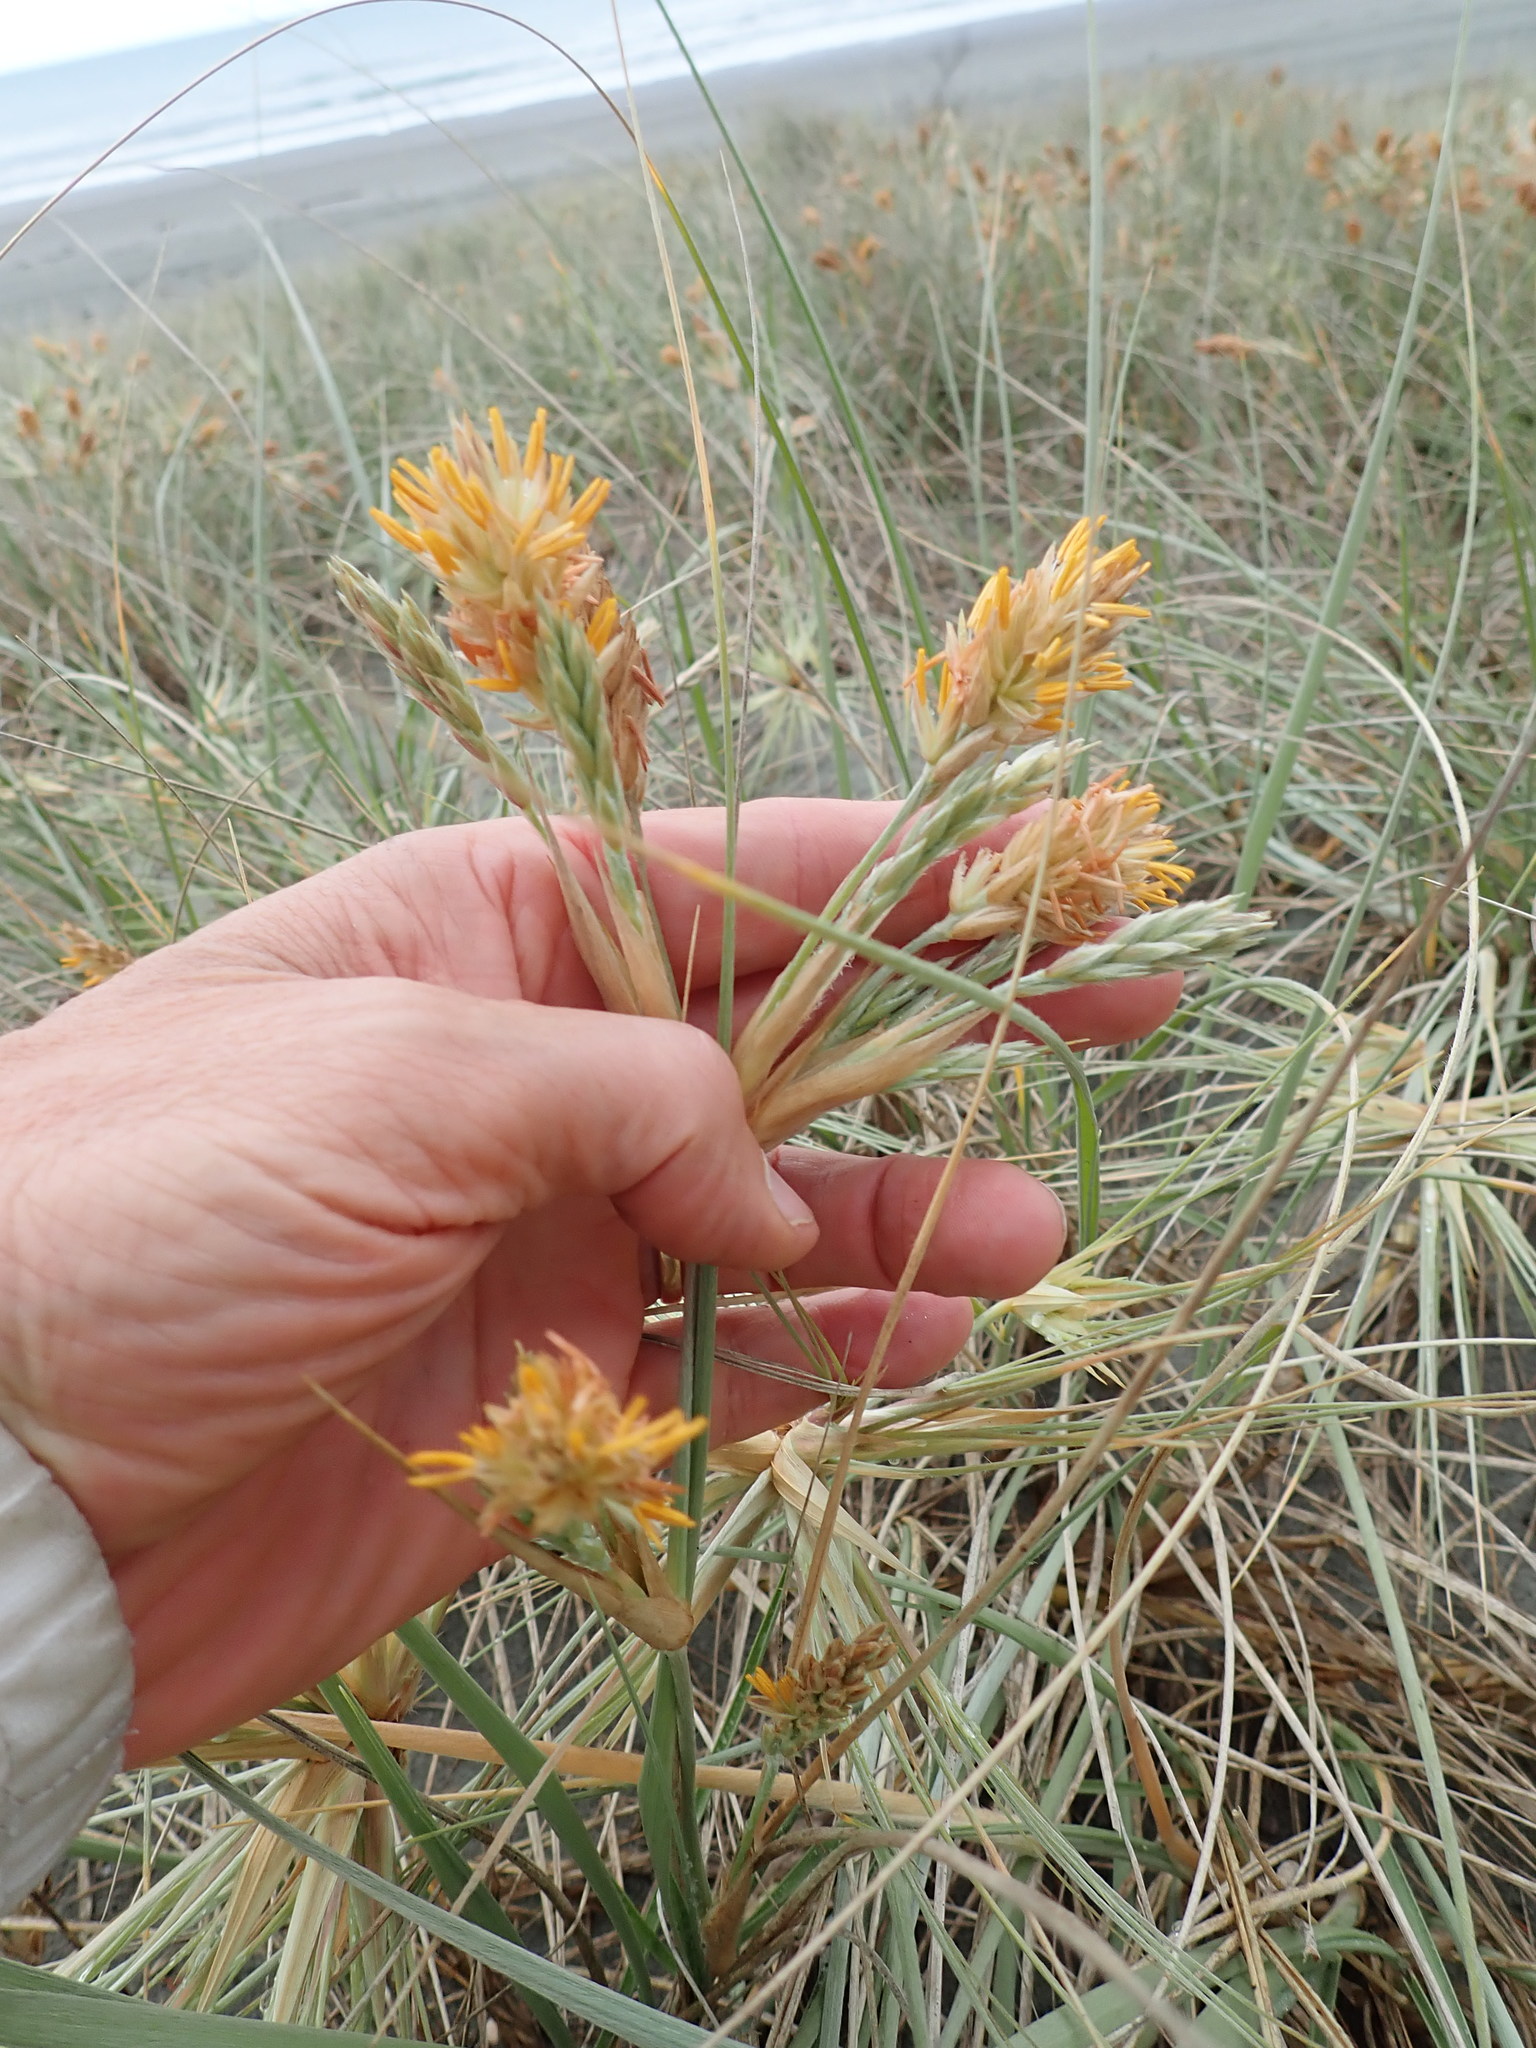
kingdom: Plantae
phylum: Tracheophyta
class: Liliopsida
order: Poales
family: Poaceae
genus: Spinifex
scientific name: Spinifex sericeus
